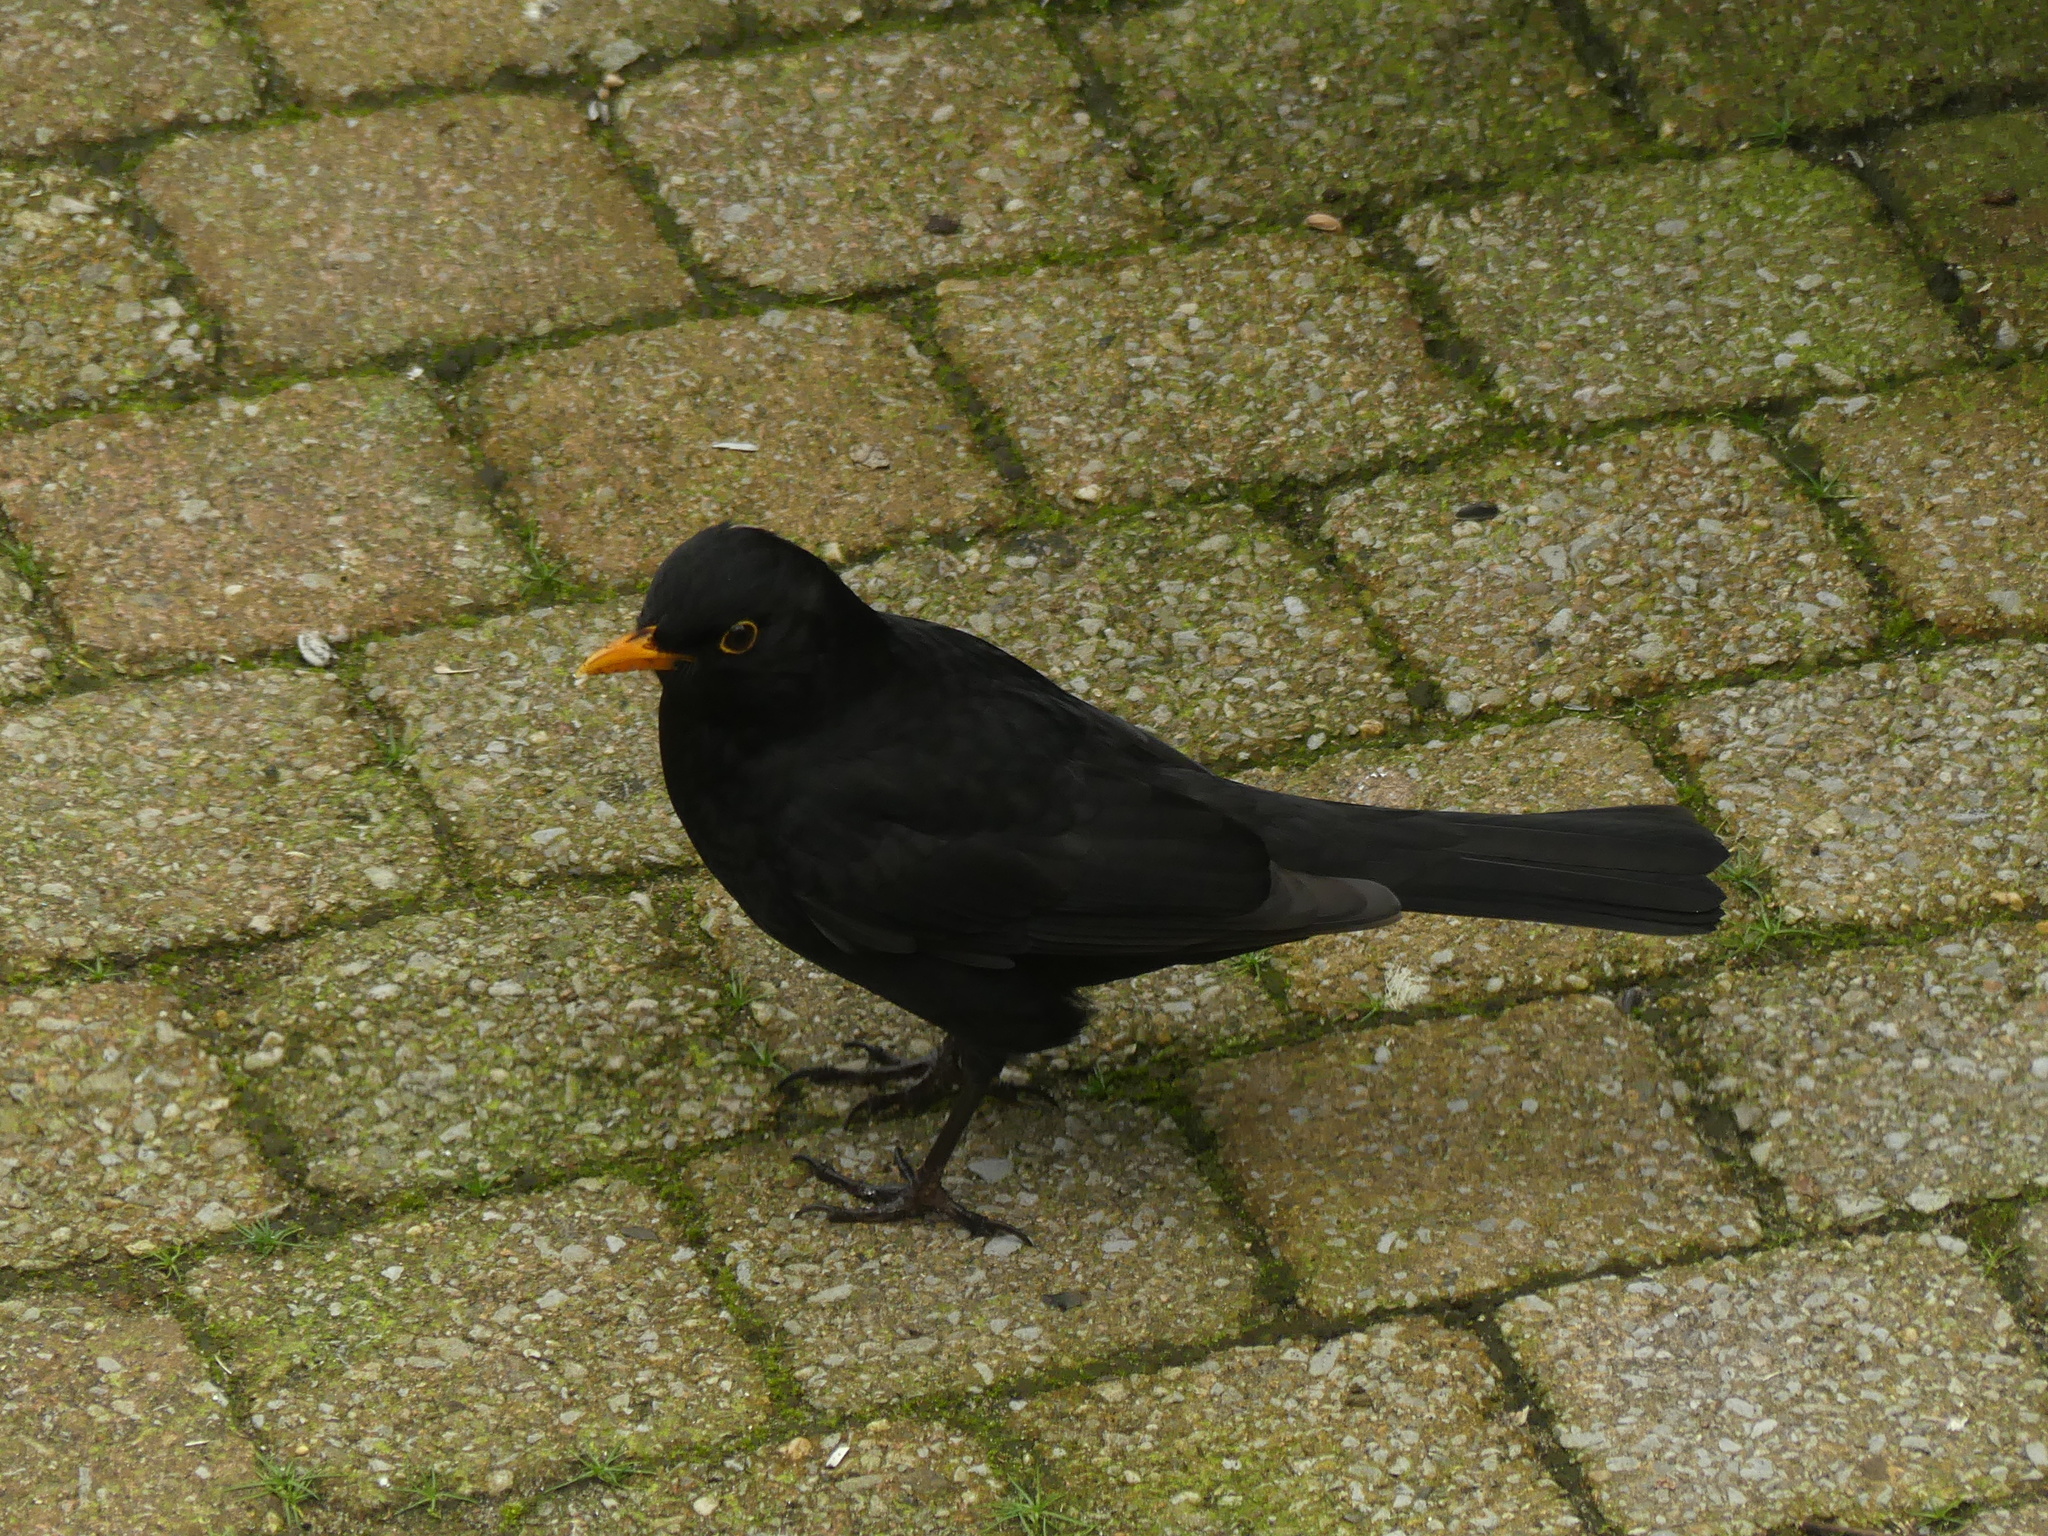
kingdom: Animalia
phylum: Chordata
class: Aves
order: Passeriformes
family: Turdidae
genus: Turdus
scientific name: Turdus merula
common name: Common blackbird
